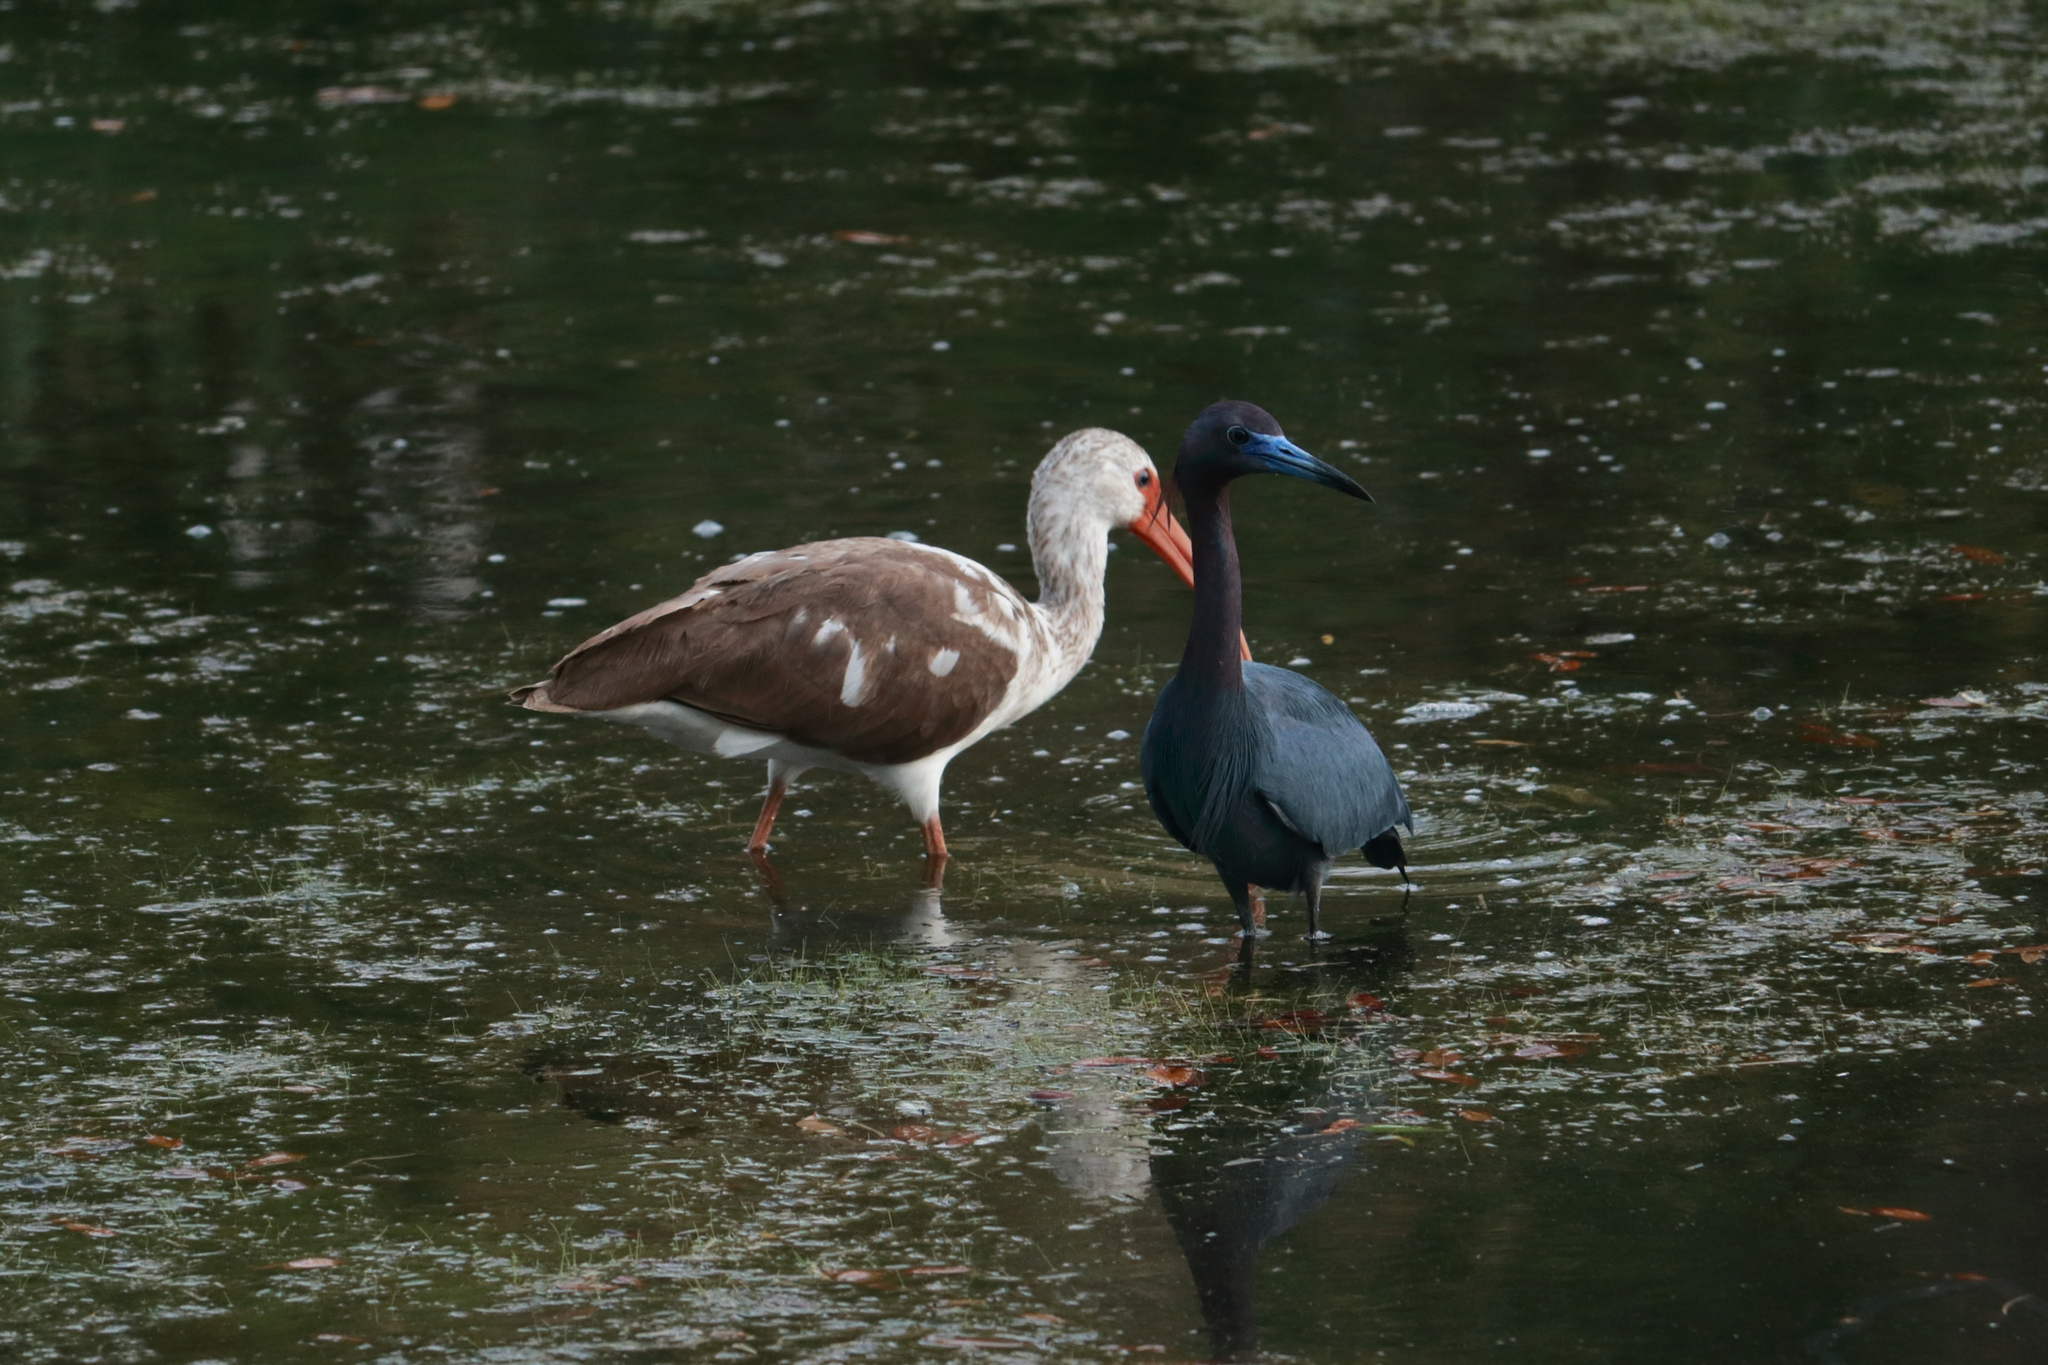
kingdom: Animalia
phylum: Chordata
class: Aves
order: Pelecaniformes
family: Threskiornithidae
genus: Eudocimus
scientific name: Eudocimus albus
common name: White ibis
